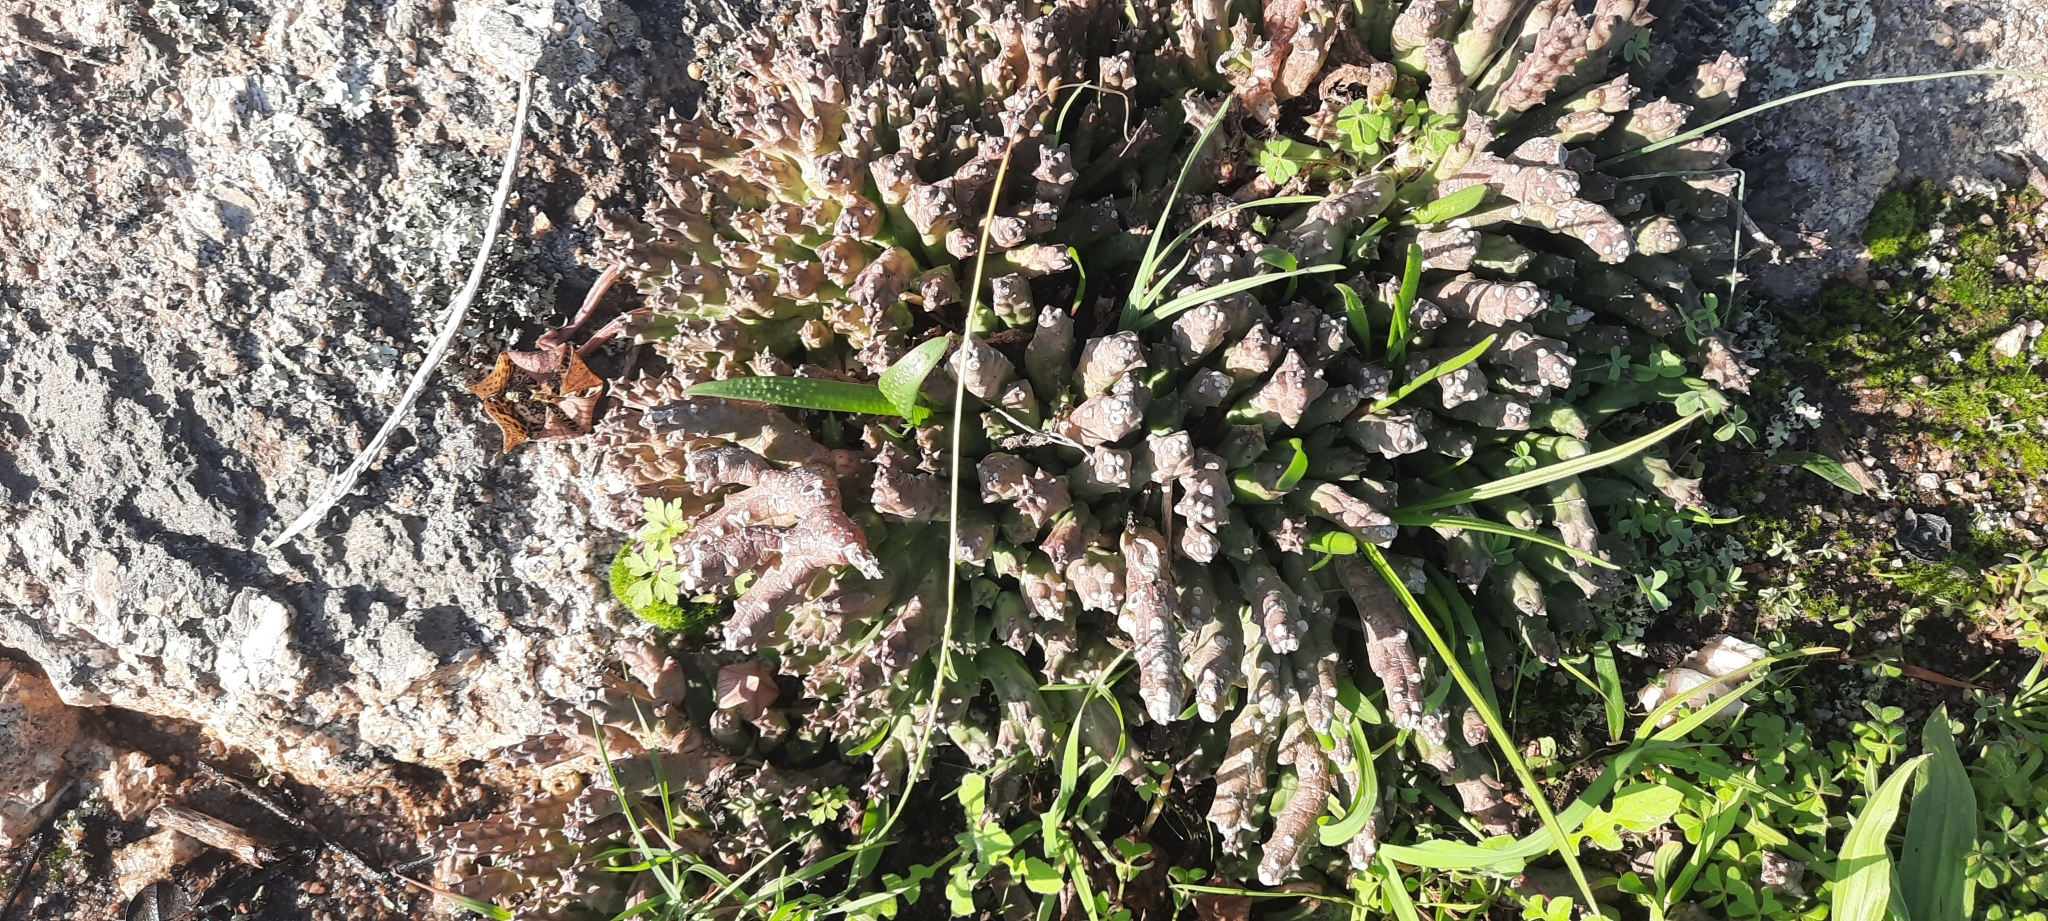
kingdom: Plantae
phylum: Tracheophyta
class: Magnoliopsida
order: Gentianales
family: Apocynaceae
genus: Ceropegia
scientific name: Ceropegia mixta
